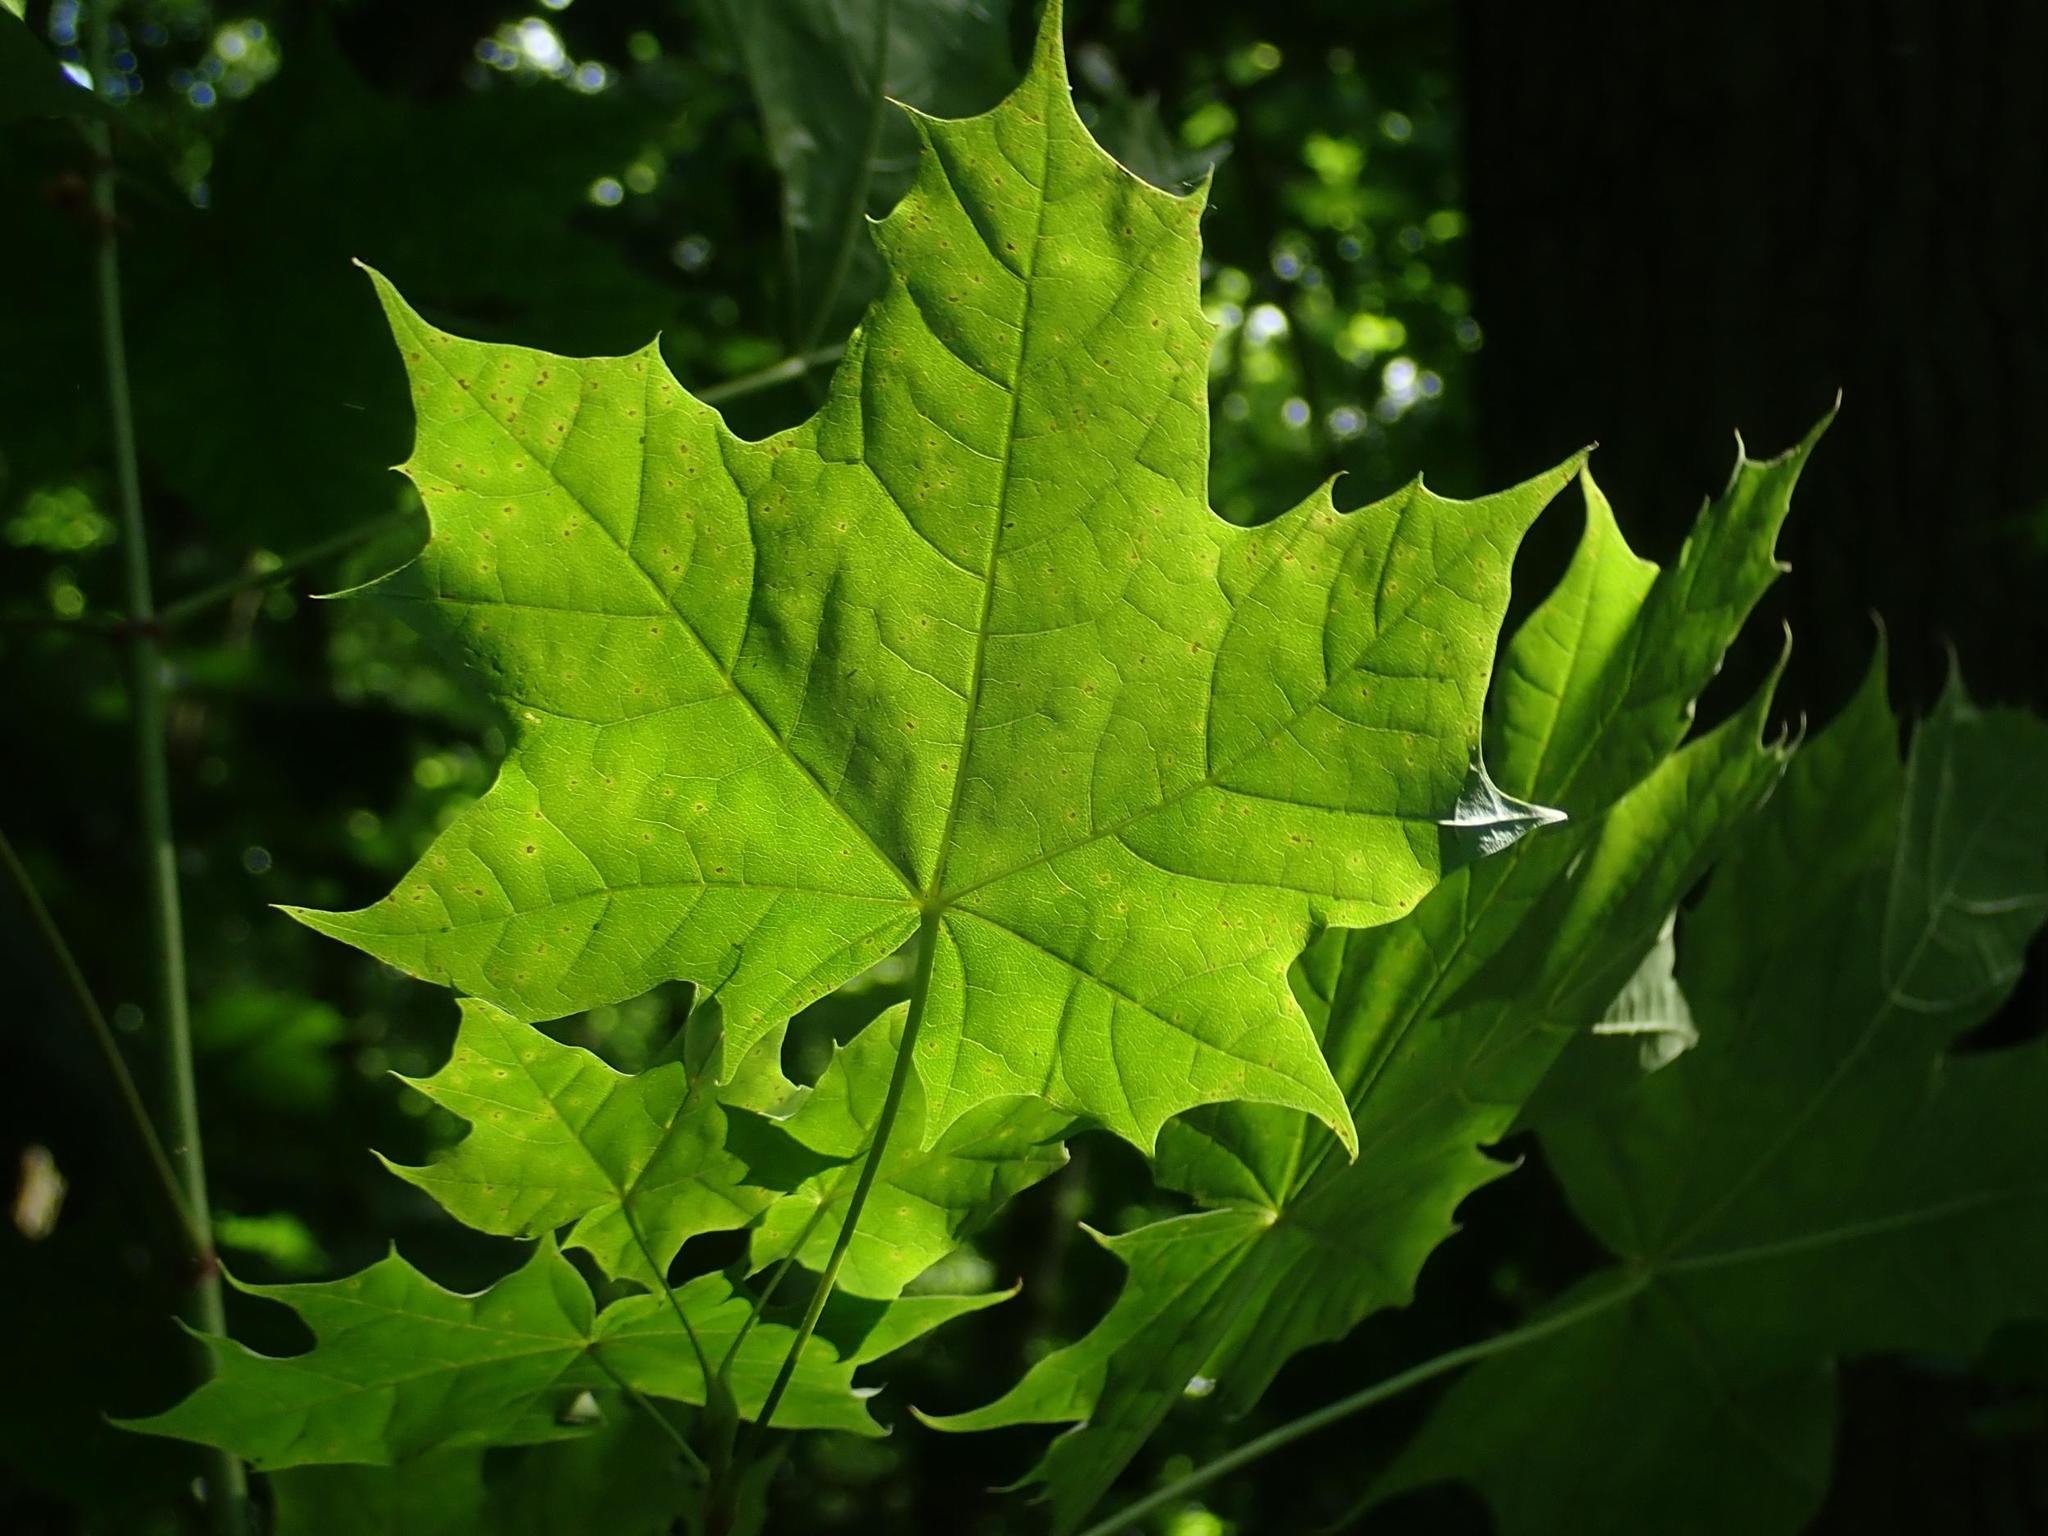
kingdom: Plantae
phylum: Tracheophyta
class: Magnoliopsida
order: Sapindales
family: Sapindaceae
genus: Acer
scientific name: Acer platanoides
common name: Norway maple
